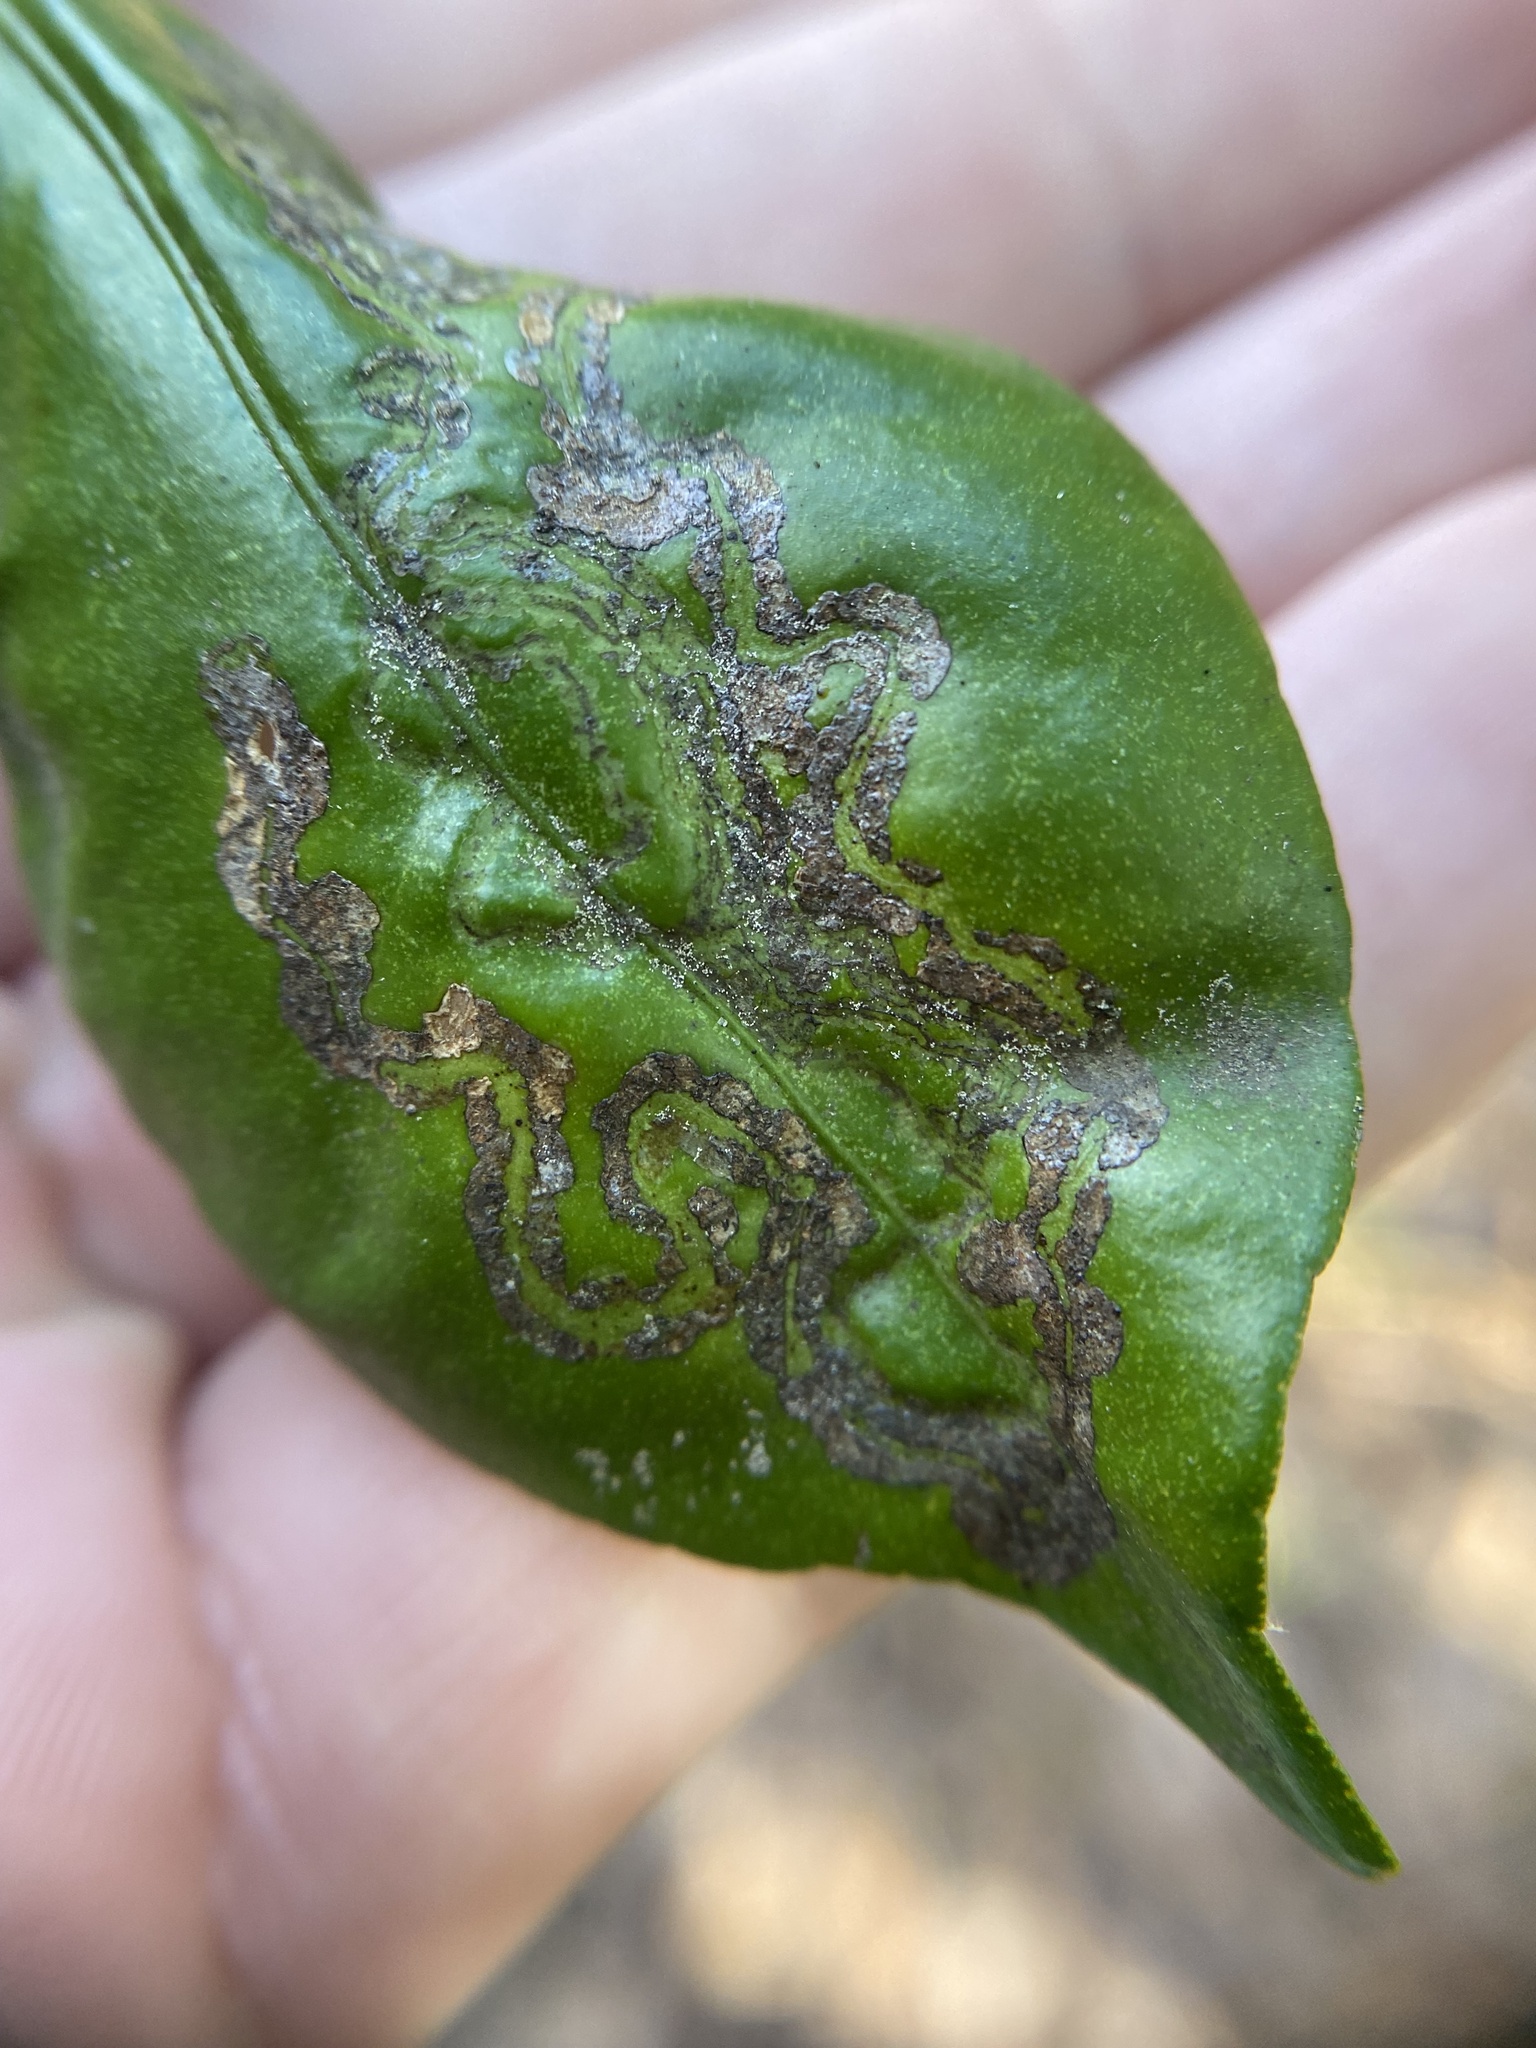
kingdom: Animalia
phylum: Arthropoda
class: Insecta
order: Lepidoptera
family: Gracillariidae
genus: Phyllocnistis
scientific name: Phyllocnistis citrella
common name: Citrus leafminer
